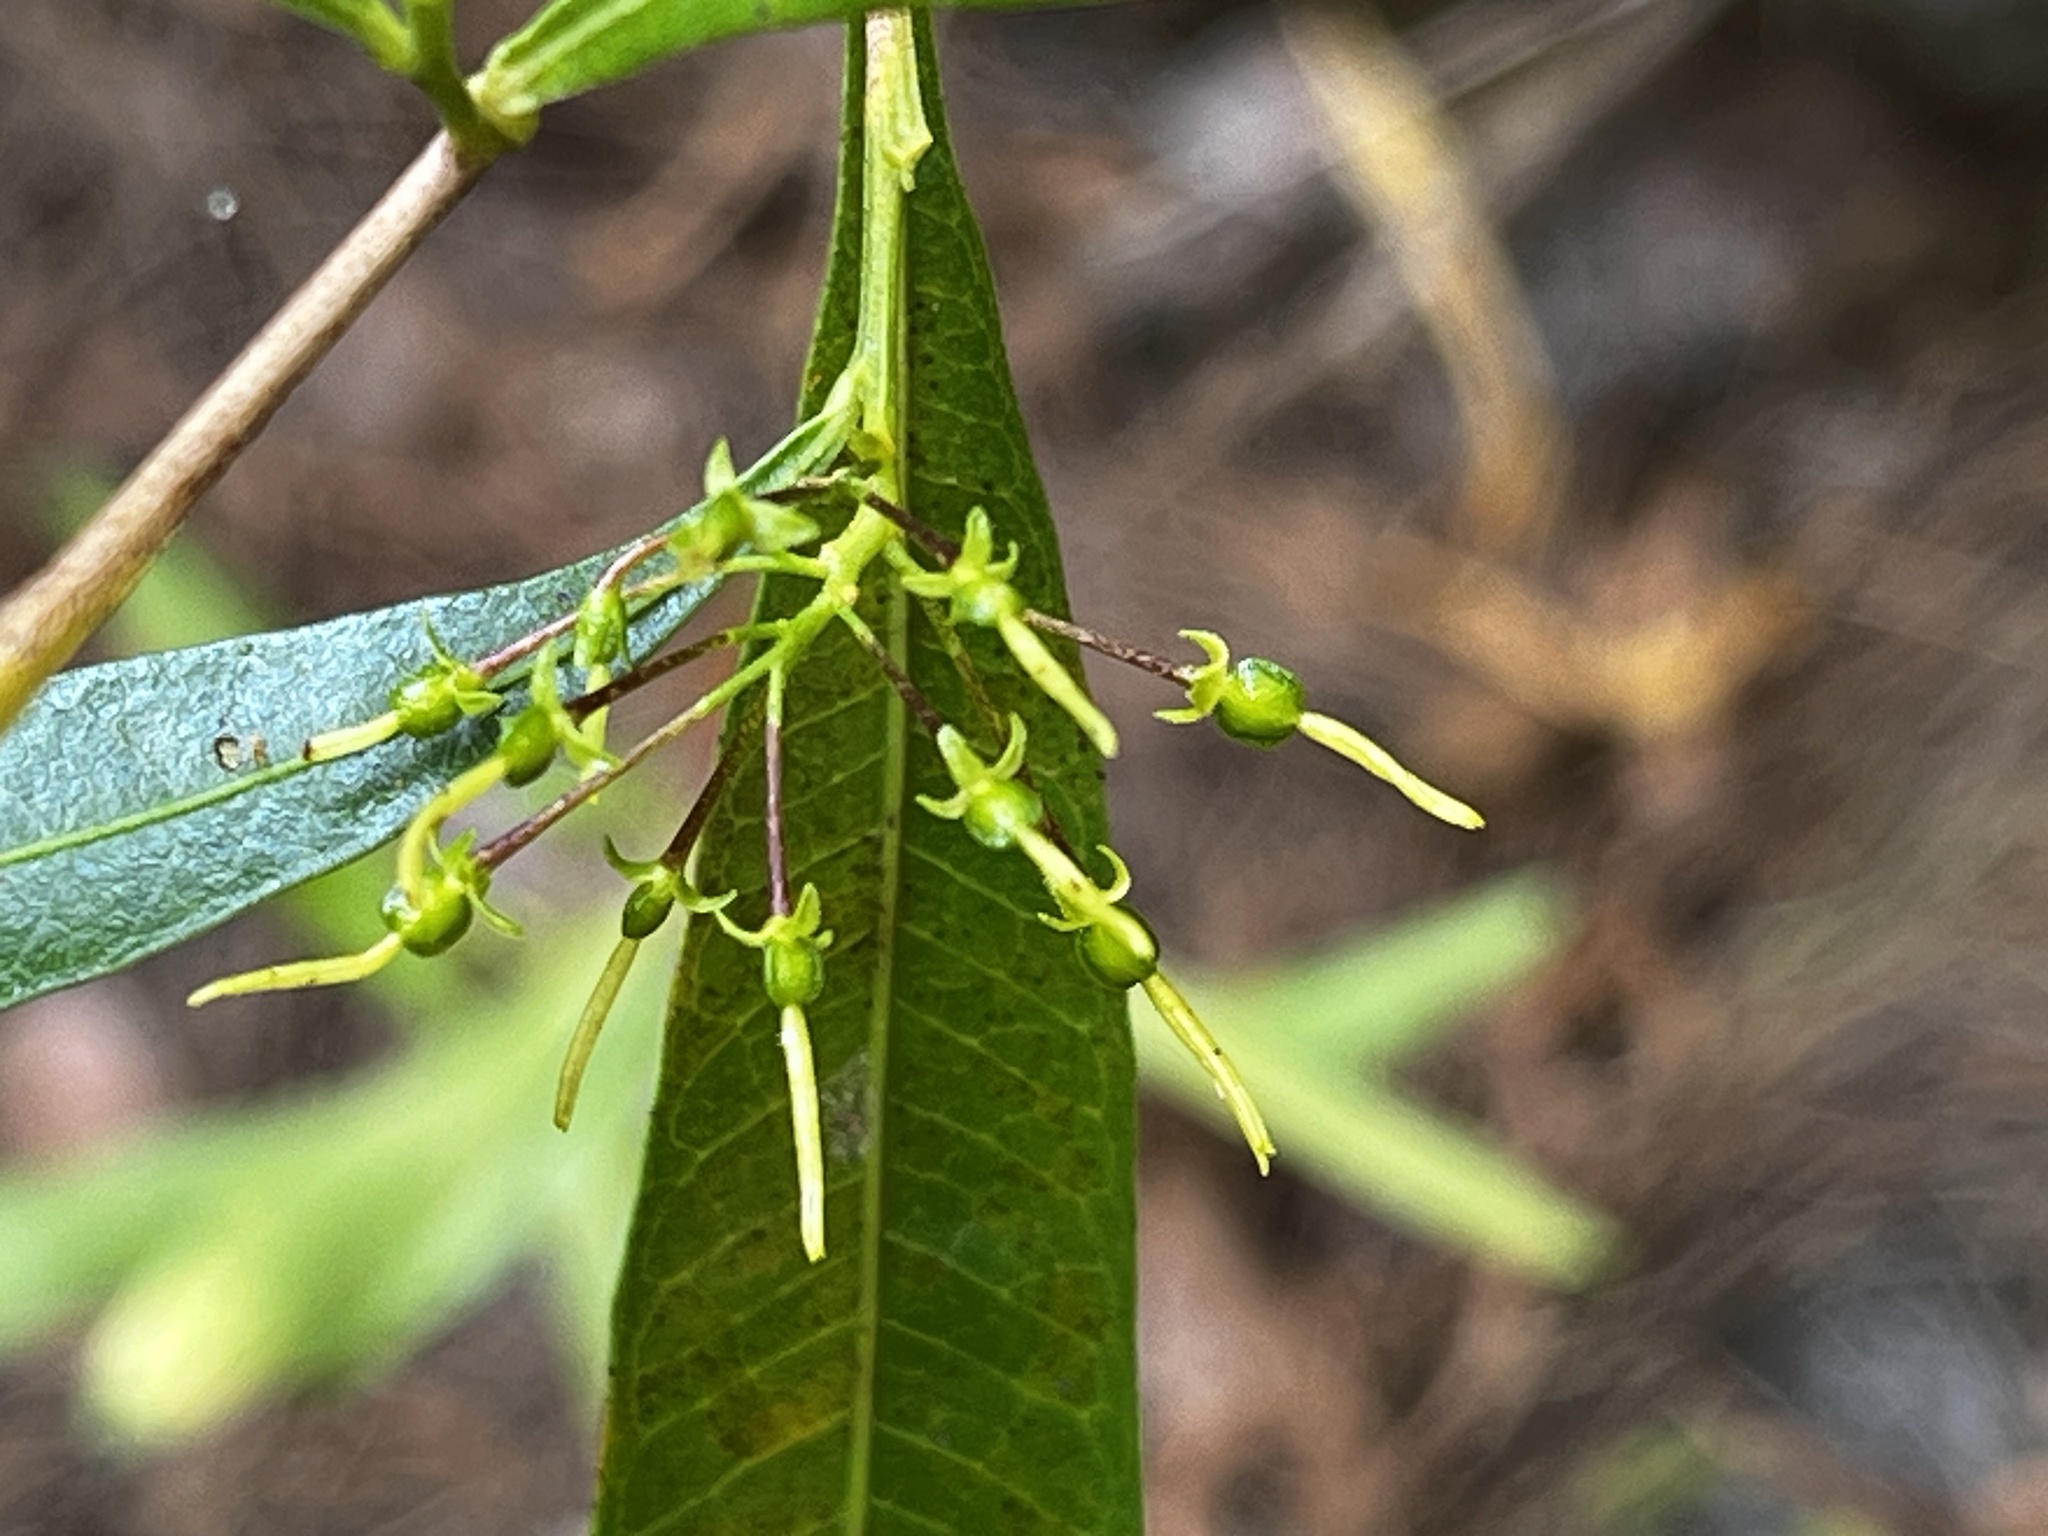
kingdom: Plantae
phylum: Tracheophyta
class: Magnoliopsida
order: Sapindales
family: Sapindaceae
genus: Dodonaea
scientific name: Dodonaea viscosa
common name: Hopbush
